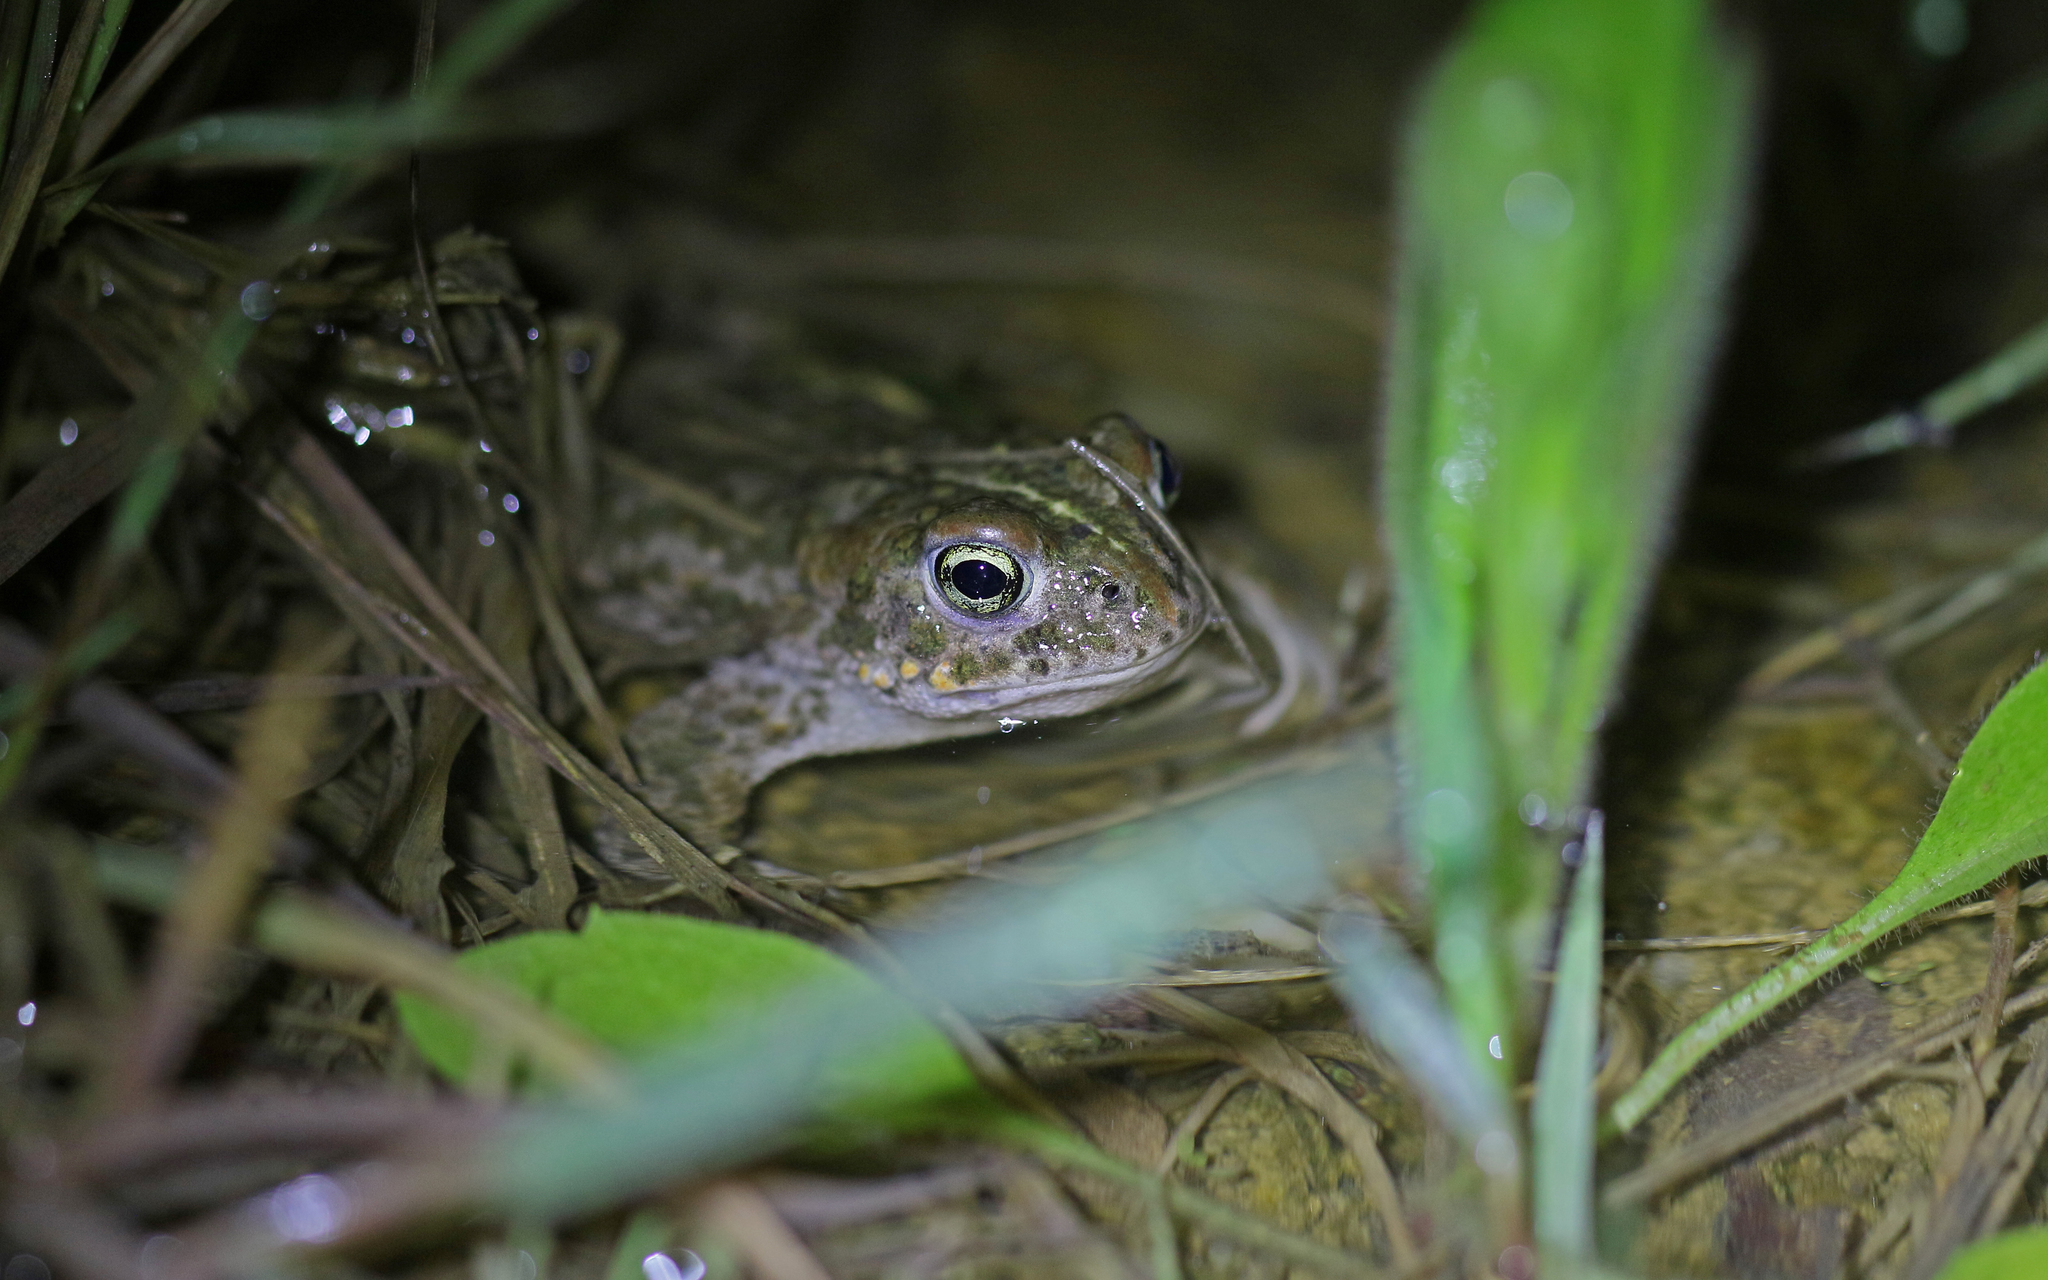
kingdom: Animalia
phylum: Chordata
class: Amphibia
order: Anura
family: Bufonidae
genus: Epidalea
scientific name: Epidalea calamita
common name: Natterjack toad
